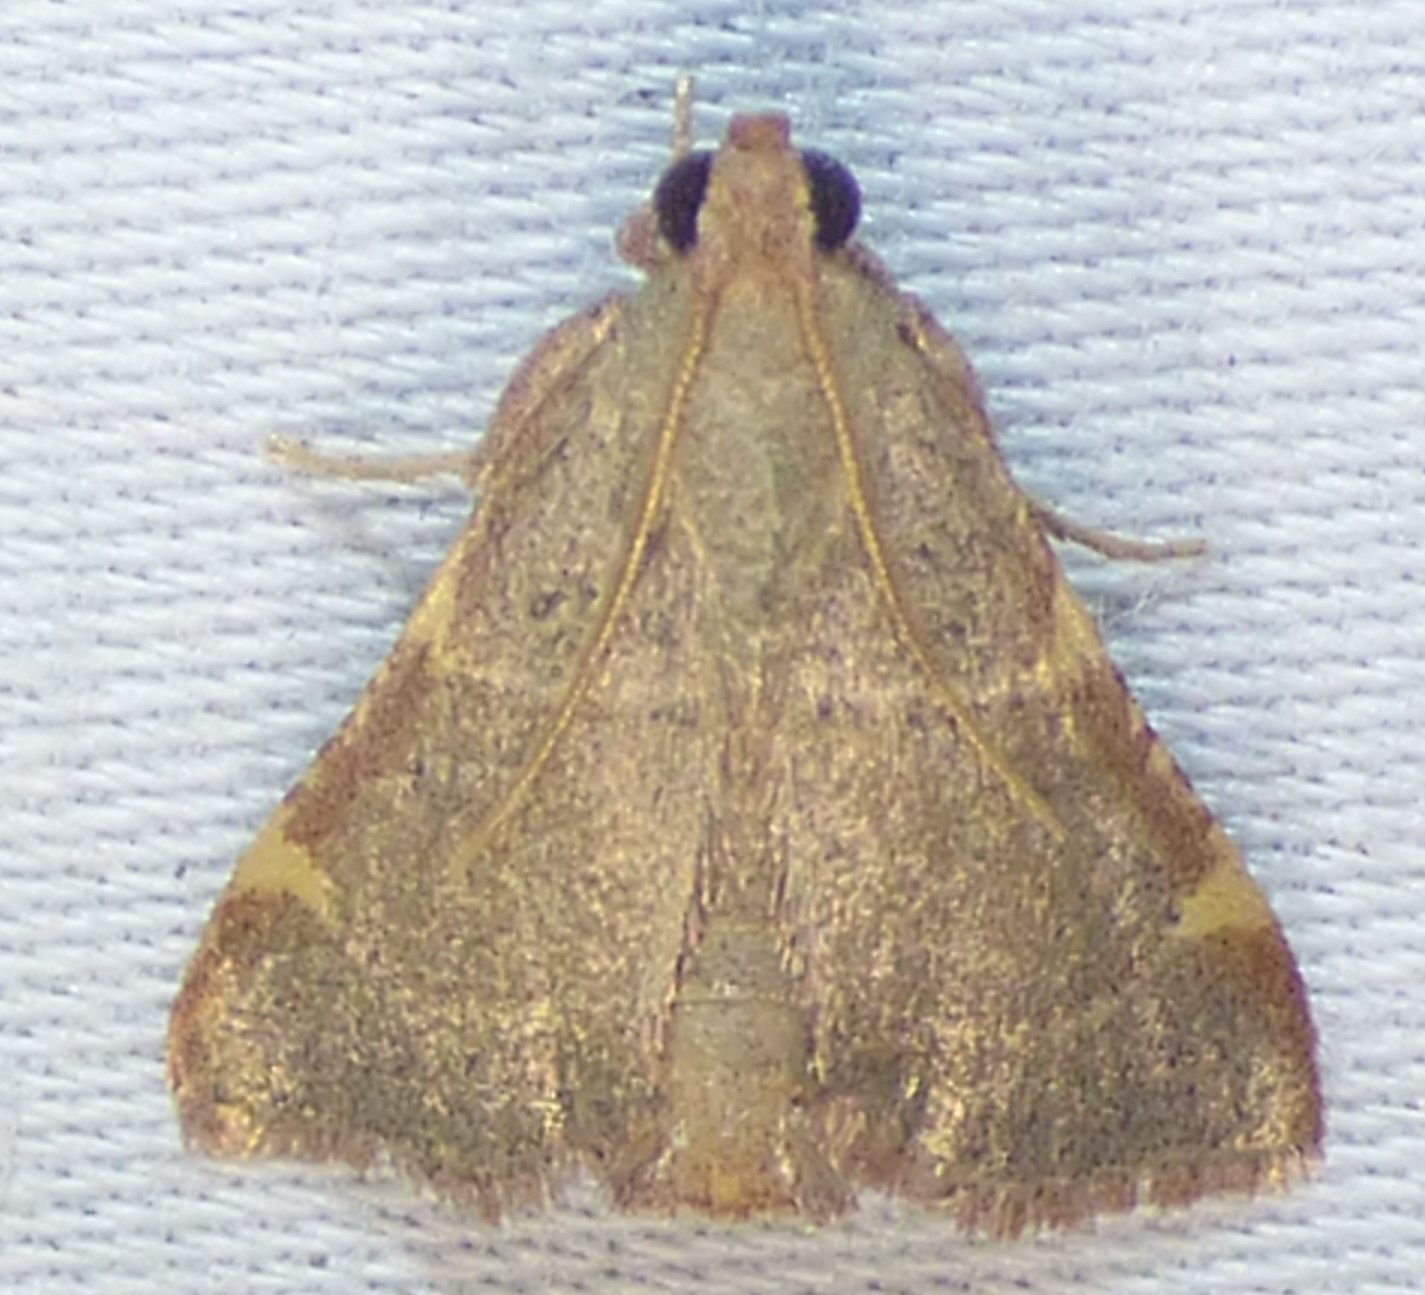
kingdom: Animalia
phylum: Arthropoda
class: Insecta
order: Lepidoptera
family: Pyralidae
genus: Hypsopygia
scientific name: Hypsopygia binodulalis
